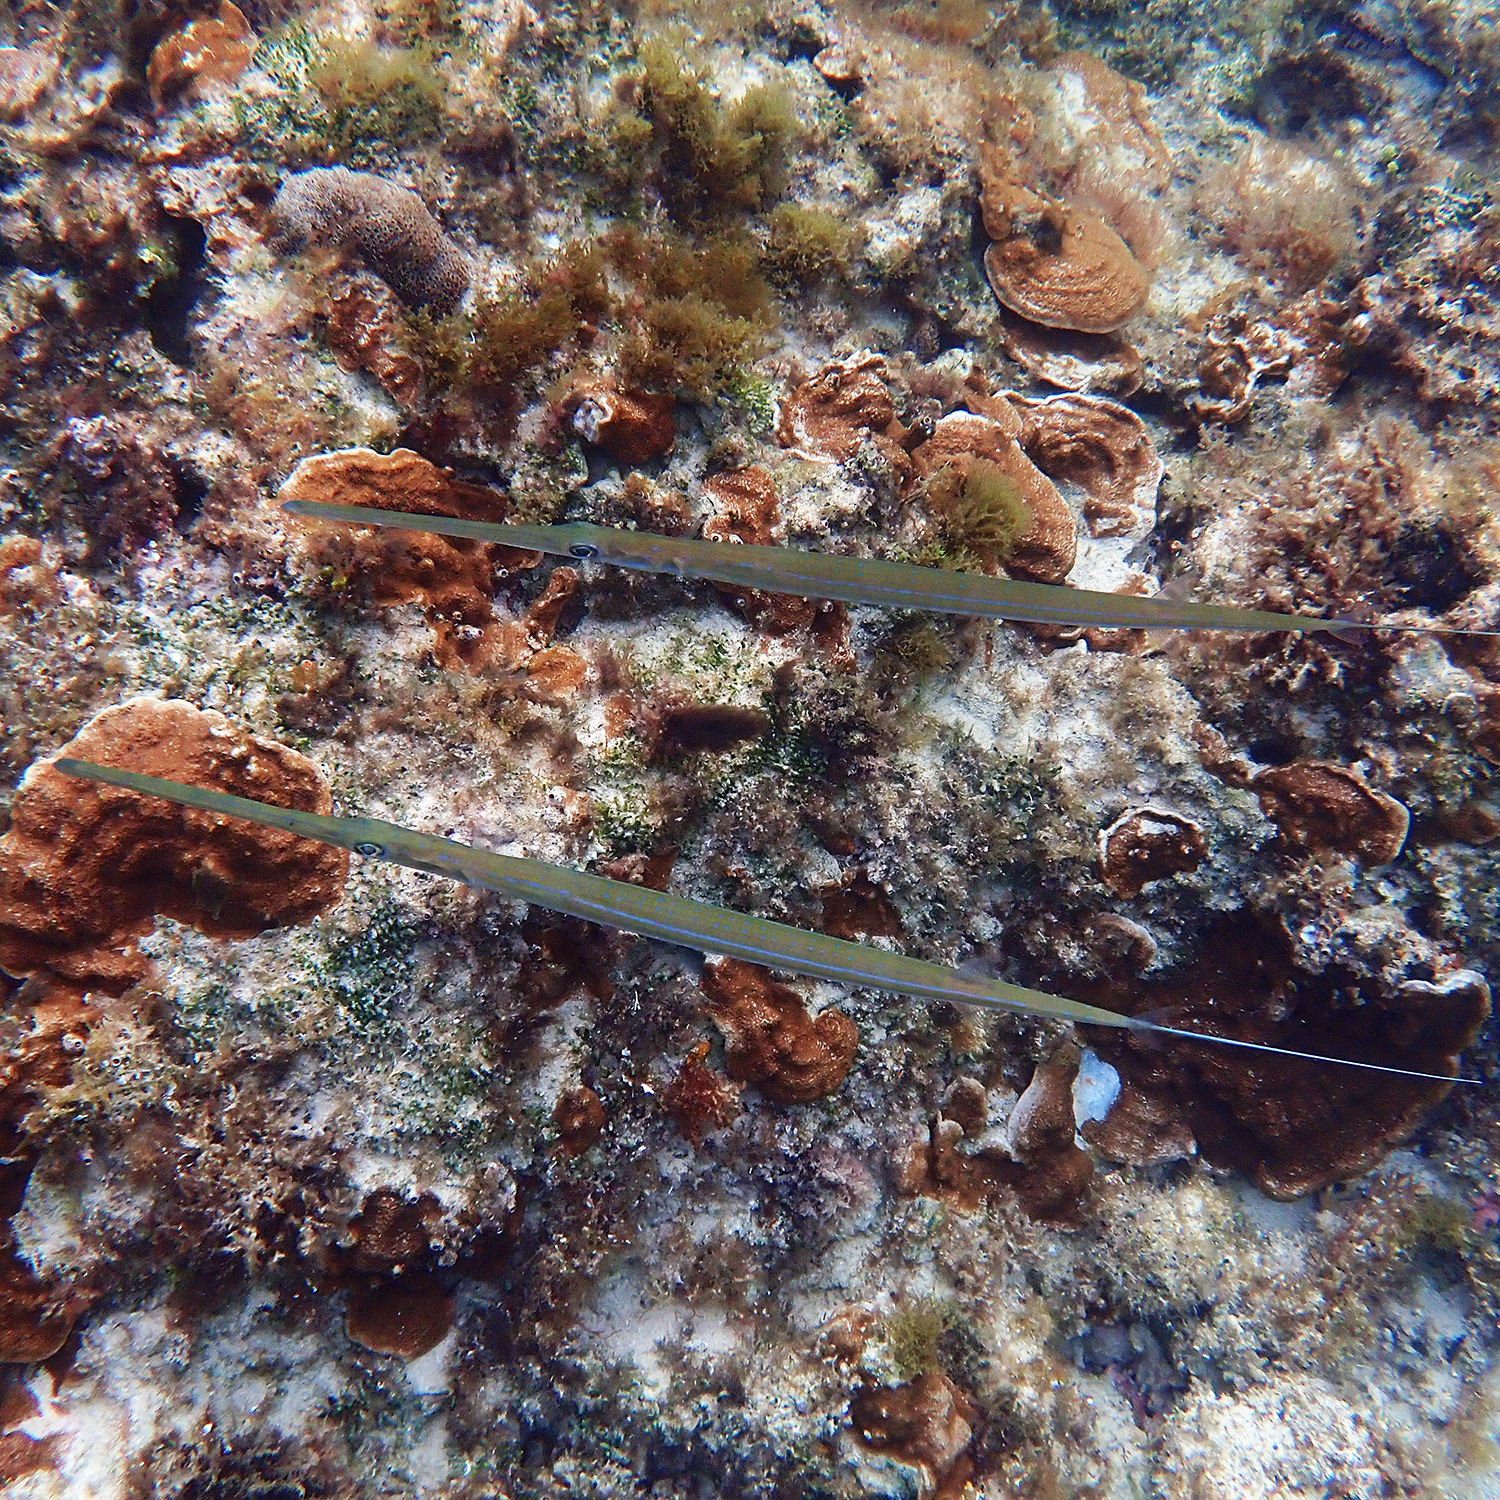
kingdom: Animalia
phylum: Chordata
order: Syngnathiformes
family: Fistulariidae
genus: Fistularia
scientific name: Fistularia commersonii
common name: Bluespotted cornetfish
